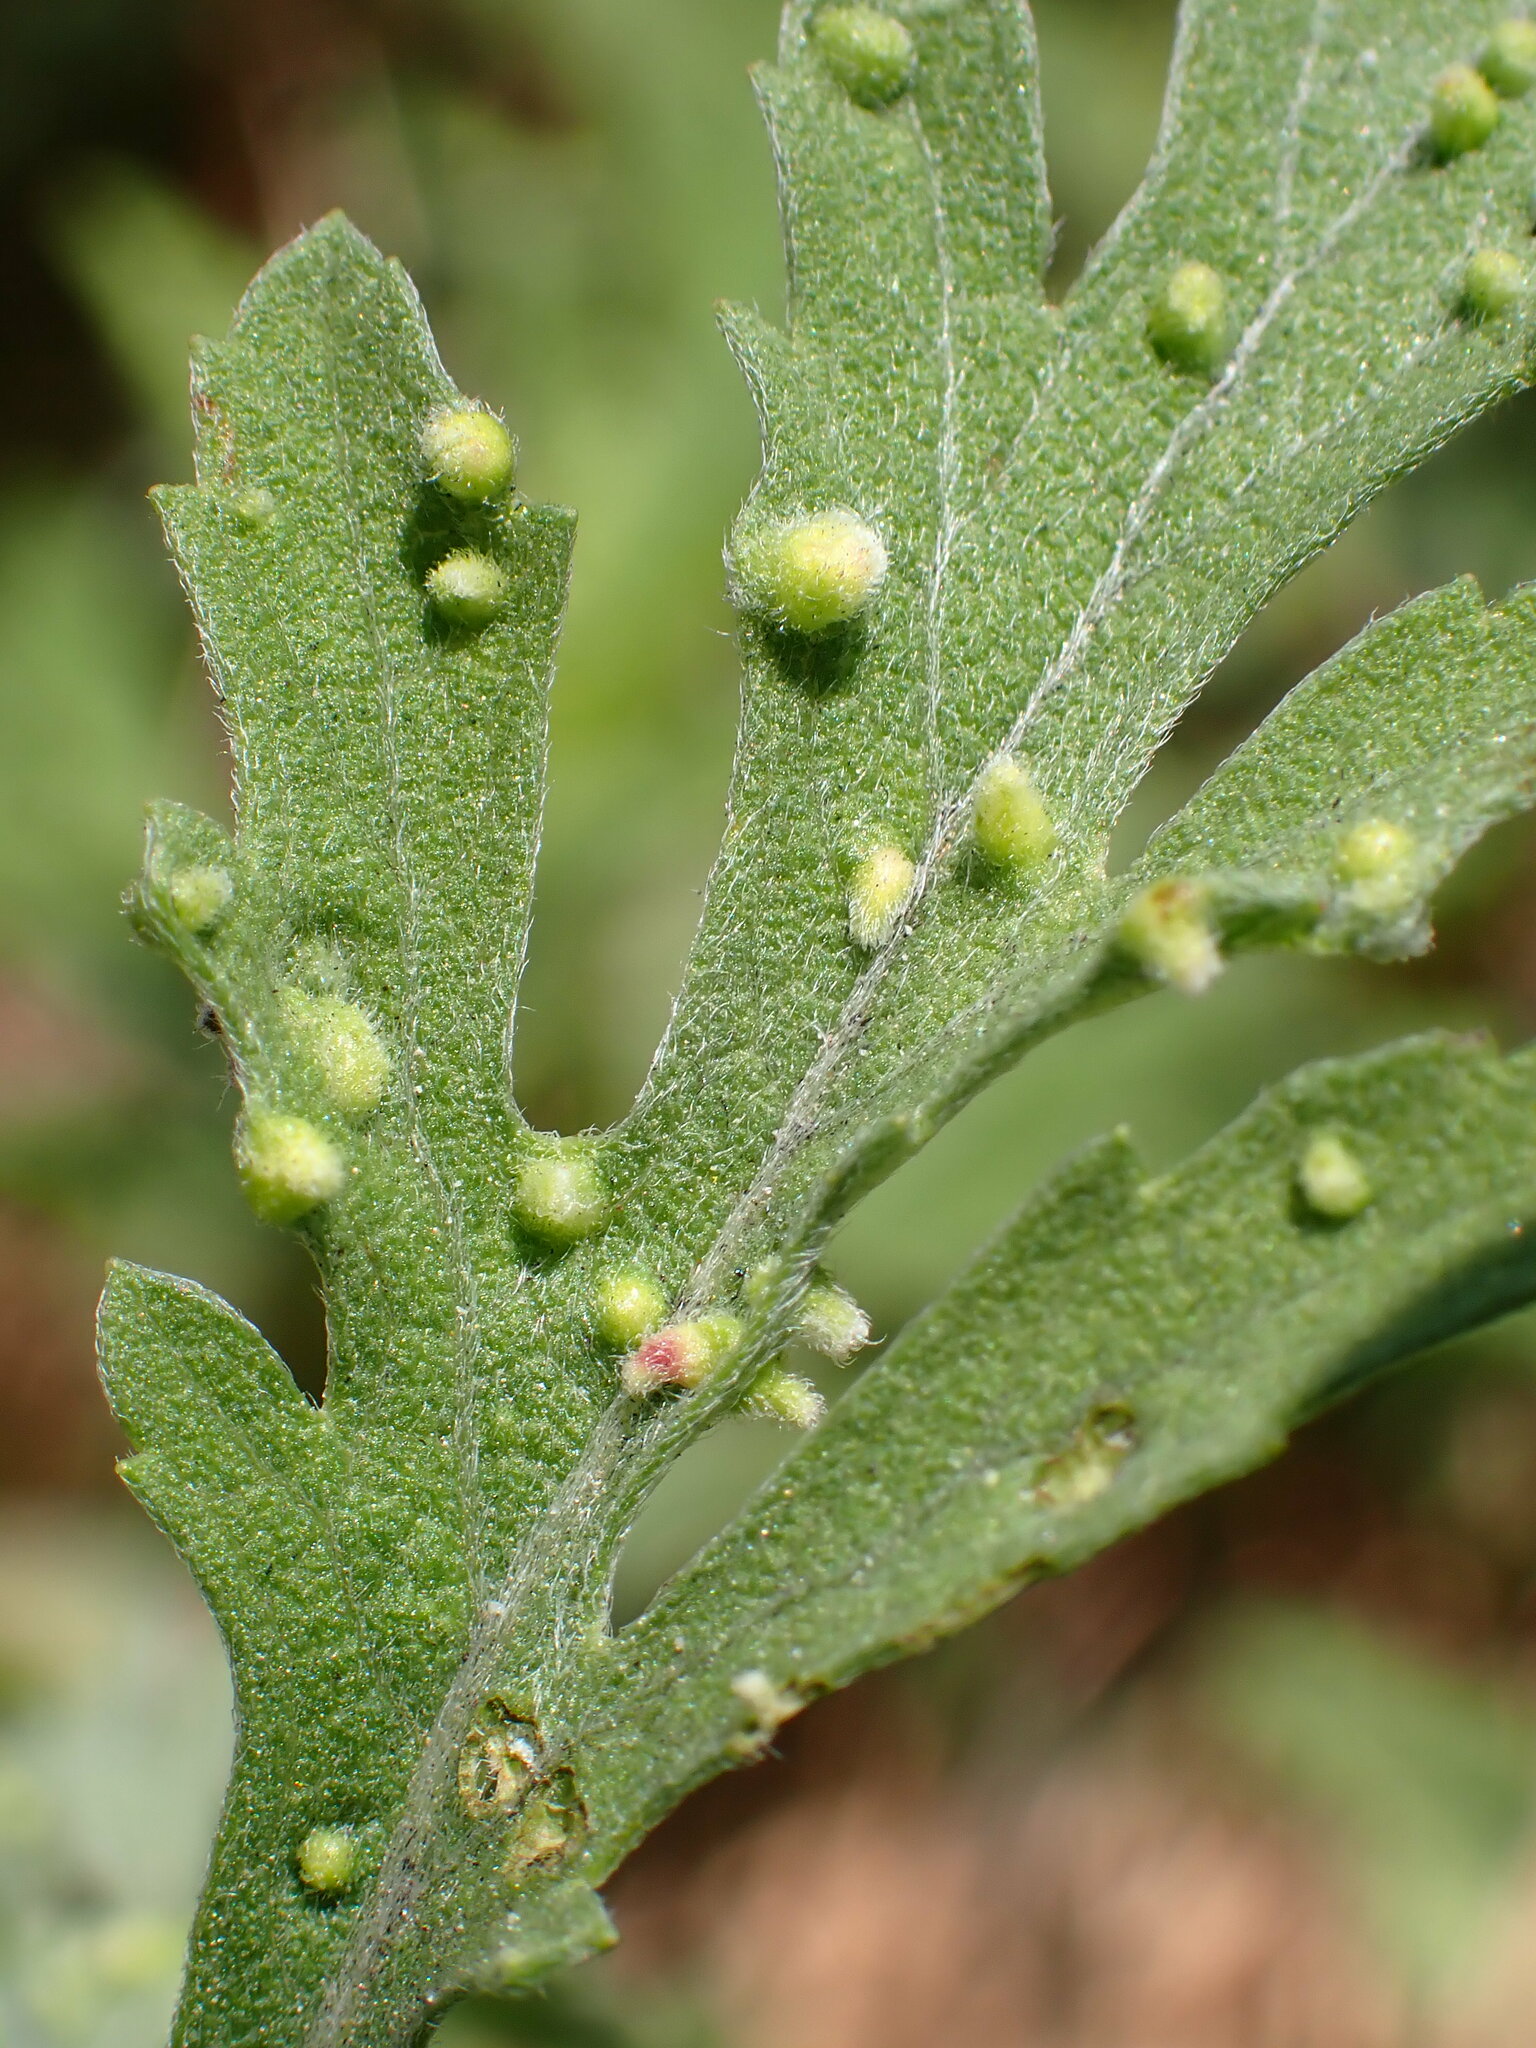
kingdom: Animalia
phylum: Arthropoda
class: Arachnida
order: Trombidiformes
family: Eriophyidae
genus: Aceria
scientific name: Aceria
